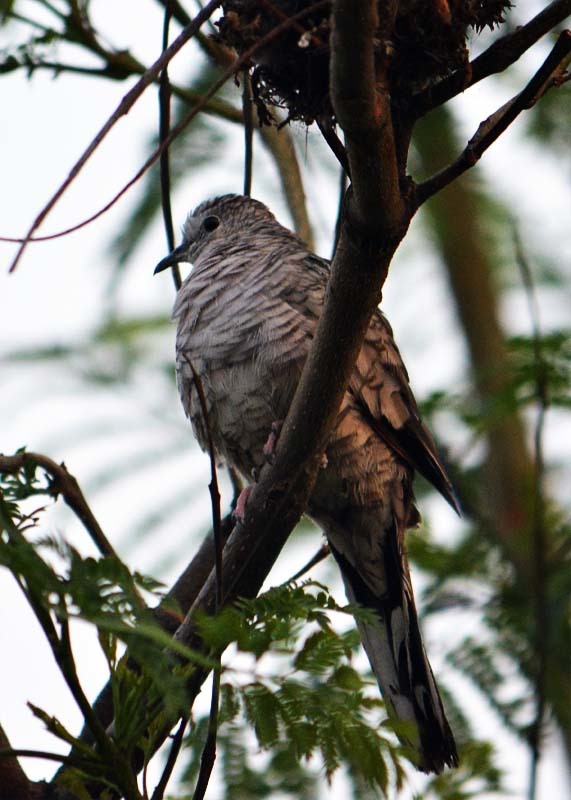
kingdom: Animalia
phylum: Chordata
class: Aves
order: Columbiformes
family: Columbidae
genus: Columbina
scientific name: Columbina inca
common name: Inca dove
